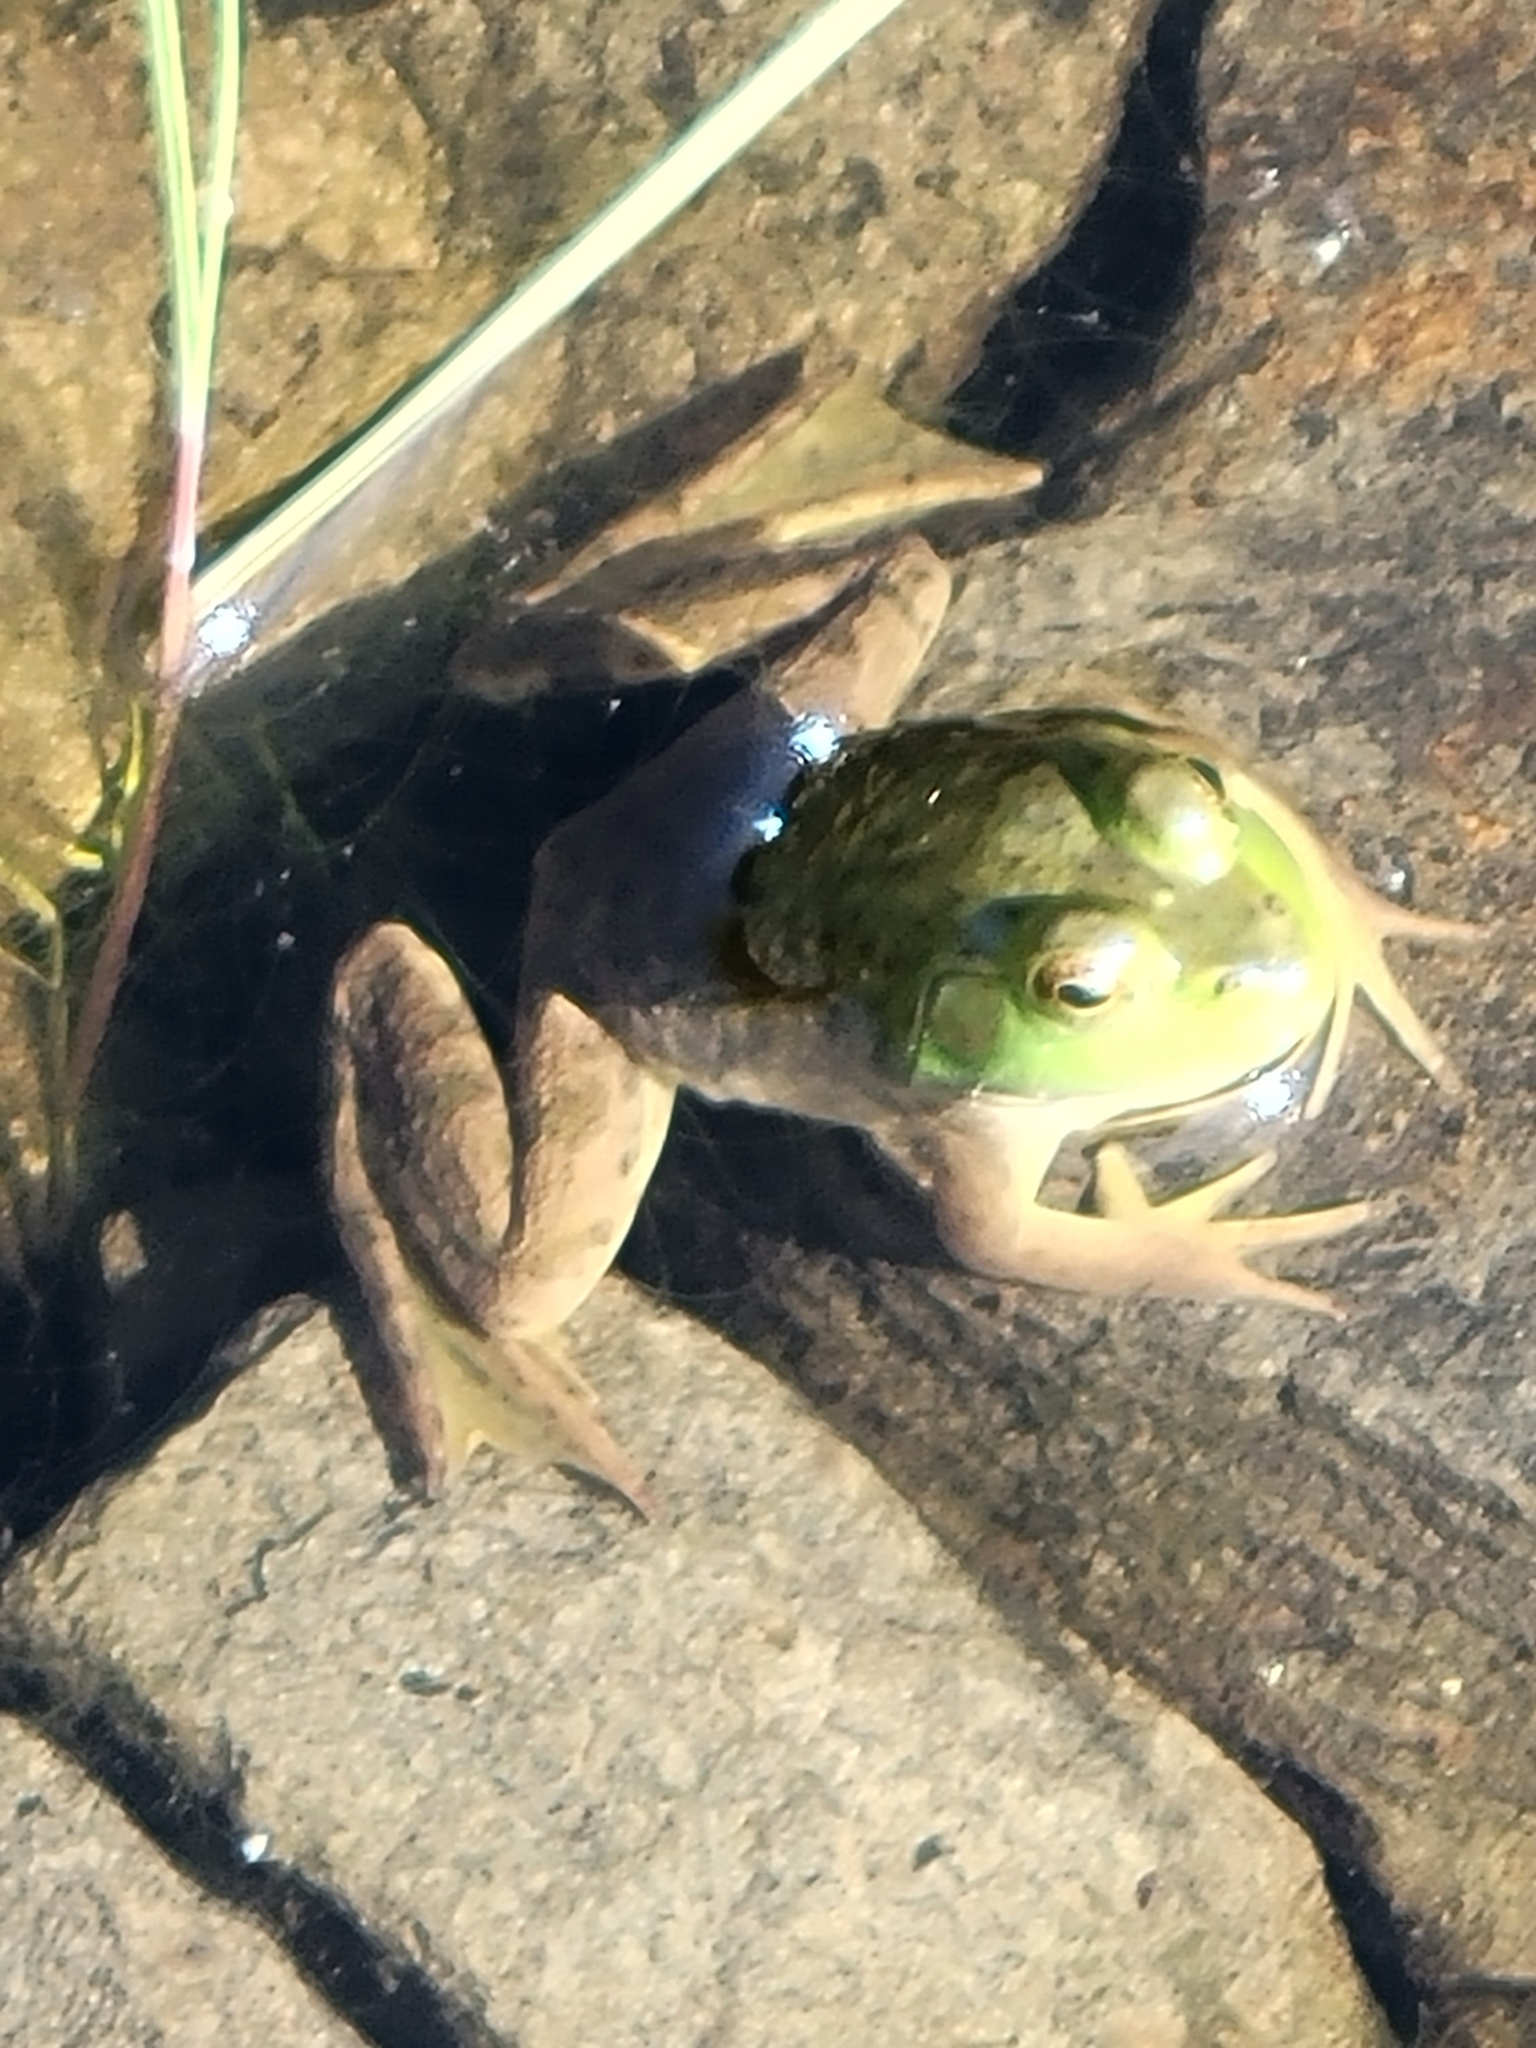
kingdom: Animalia
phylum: Chordata
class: Amphibia
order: Anura
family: Ranidae
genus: Lithobates
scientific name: Lithobates catesbeianus
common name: American bullfrog
